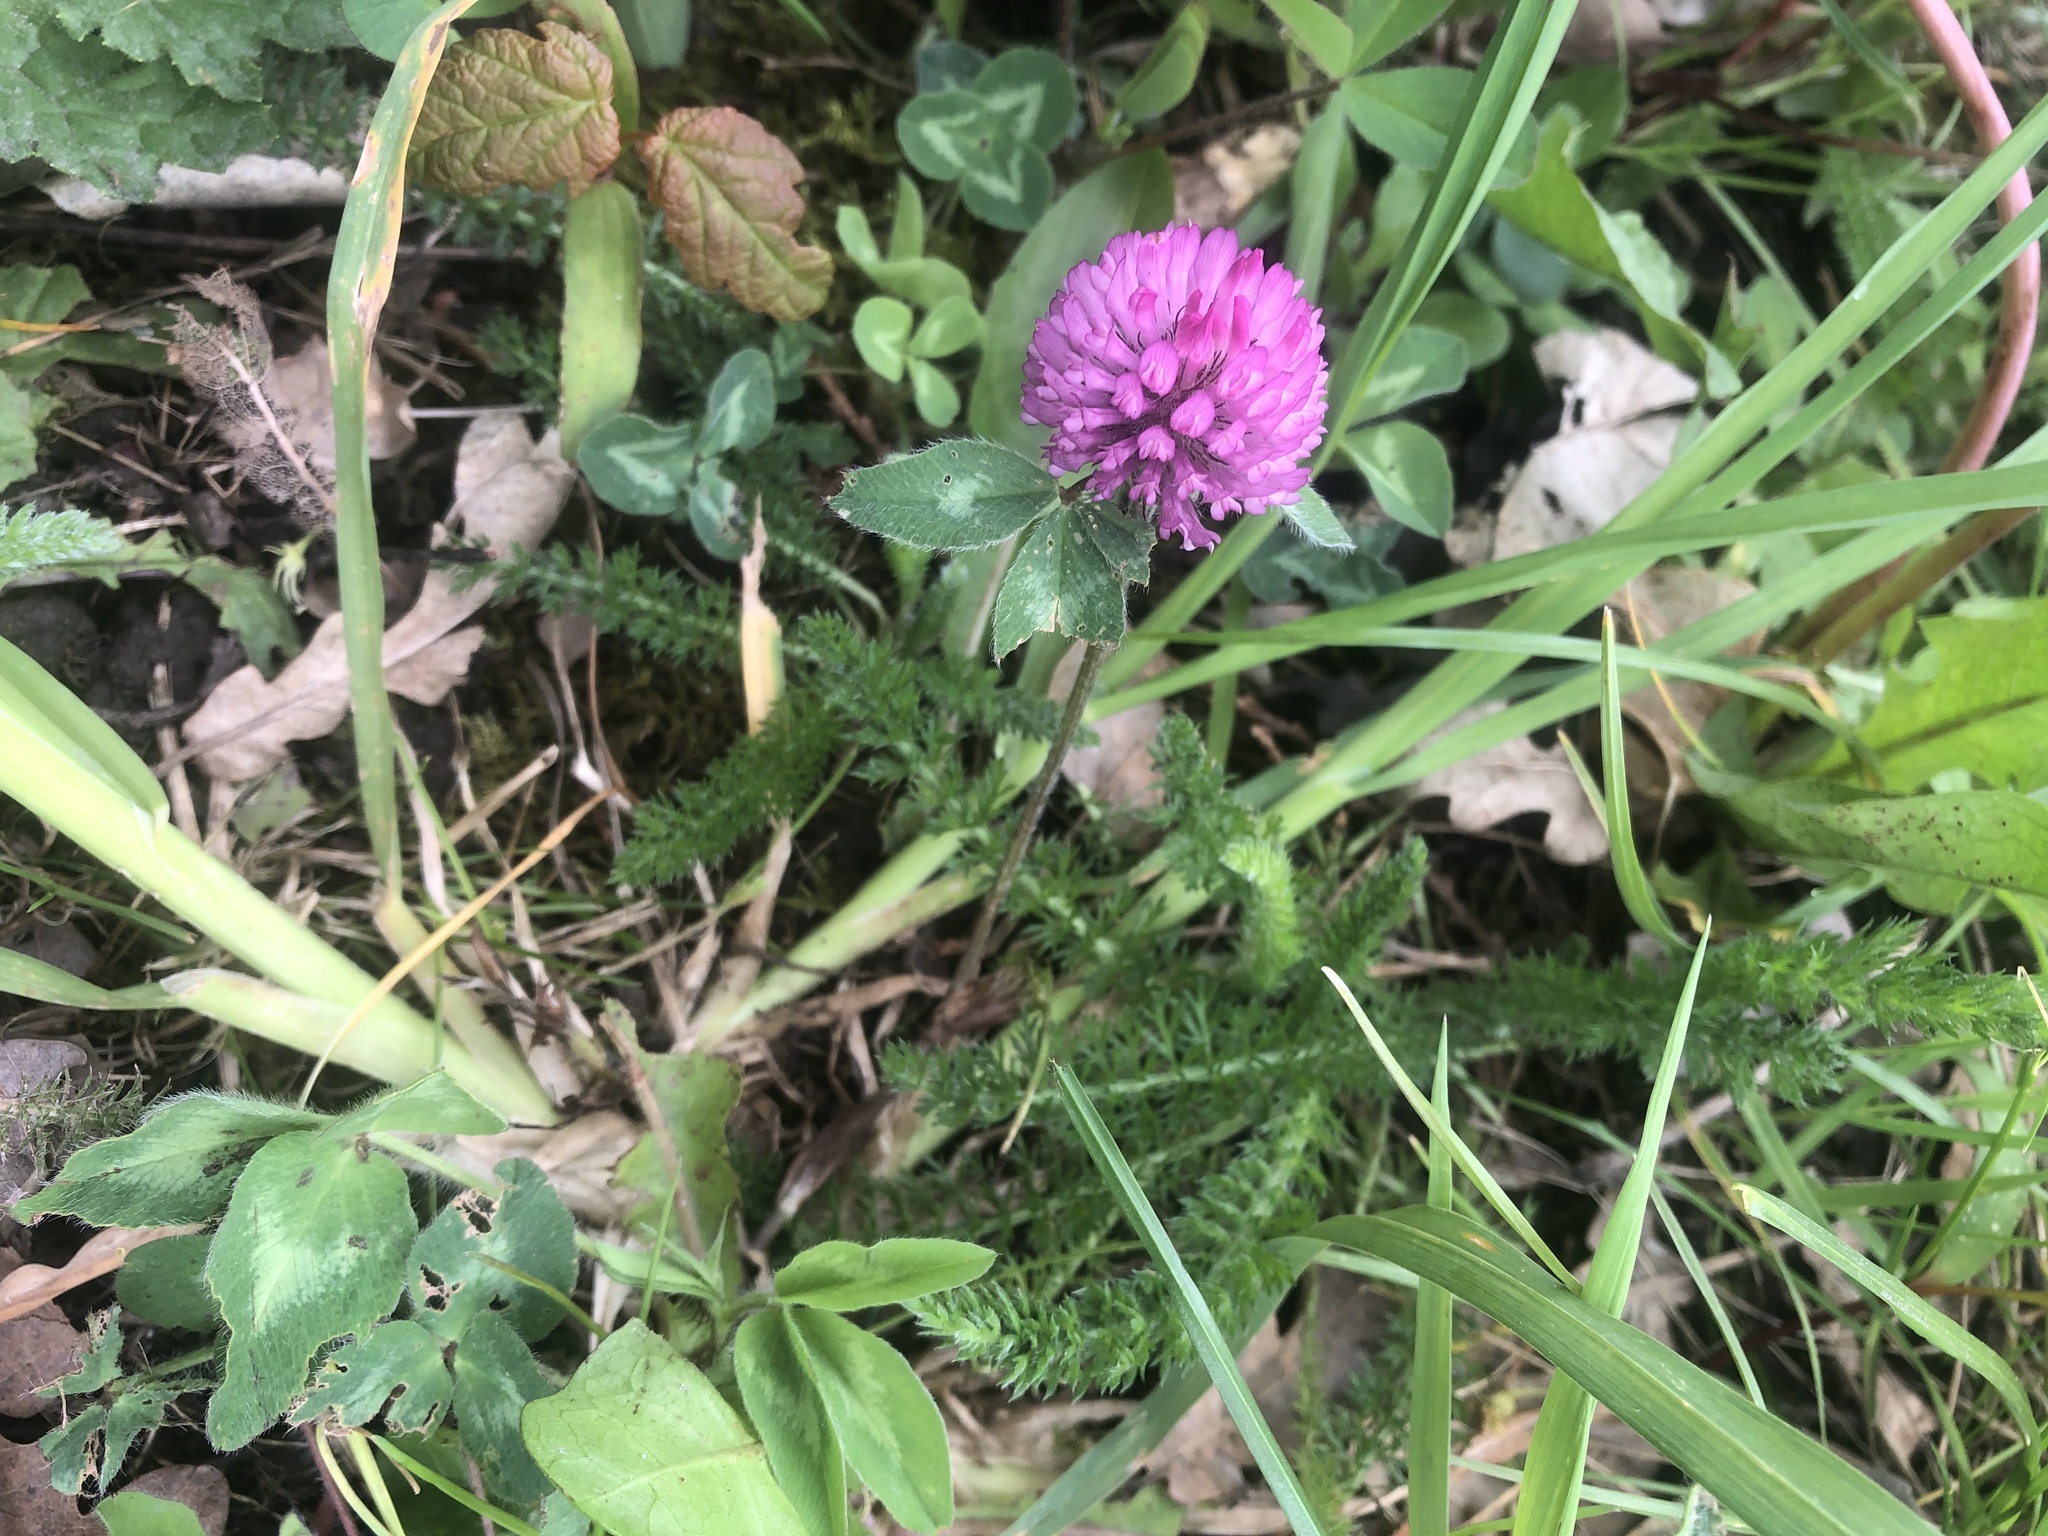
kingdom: Plantae
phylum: Tracheophyta
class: Magnoliopsida
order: Fabales
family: Fabaceae
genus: Trifolium
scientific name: Trifolium pratense
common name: Red clover
